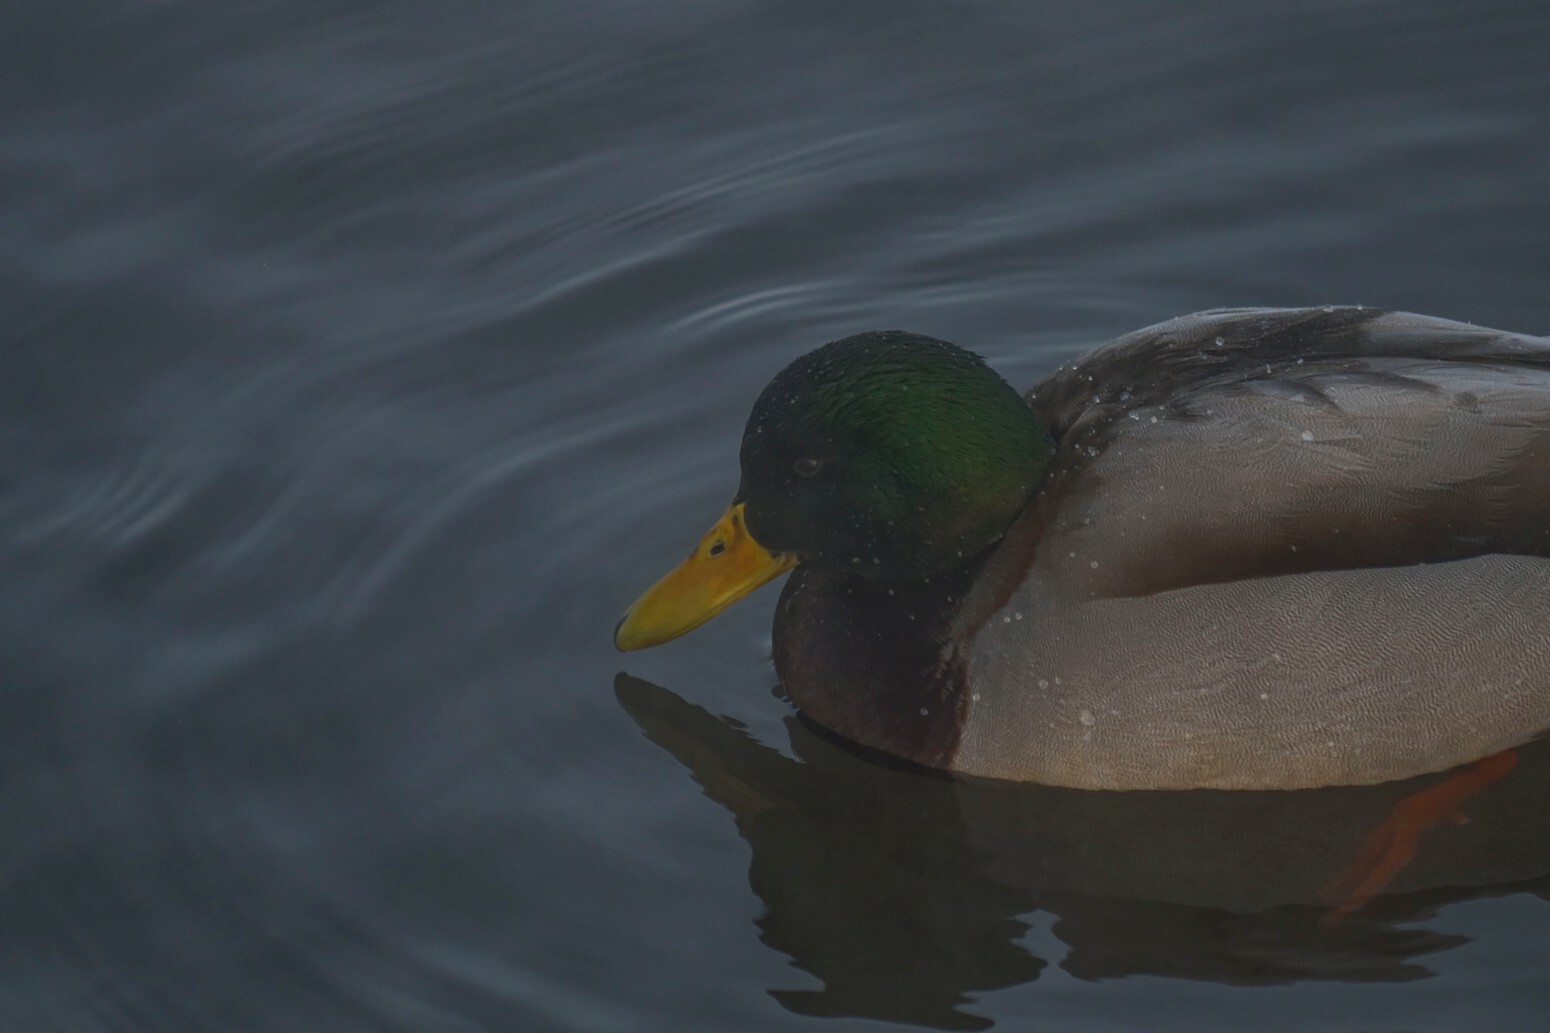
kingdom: Animalia
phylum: Chordata
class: Aves
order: Anseriformes
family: Anatidae
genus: Anas
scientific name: Anas platyrhynchos
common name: Mallard
